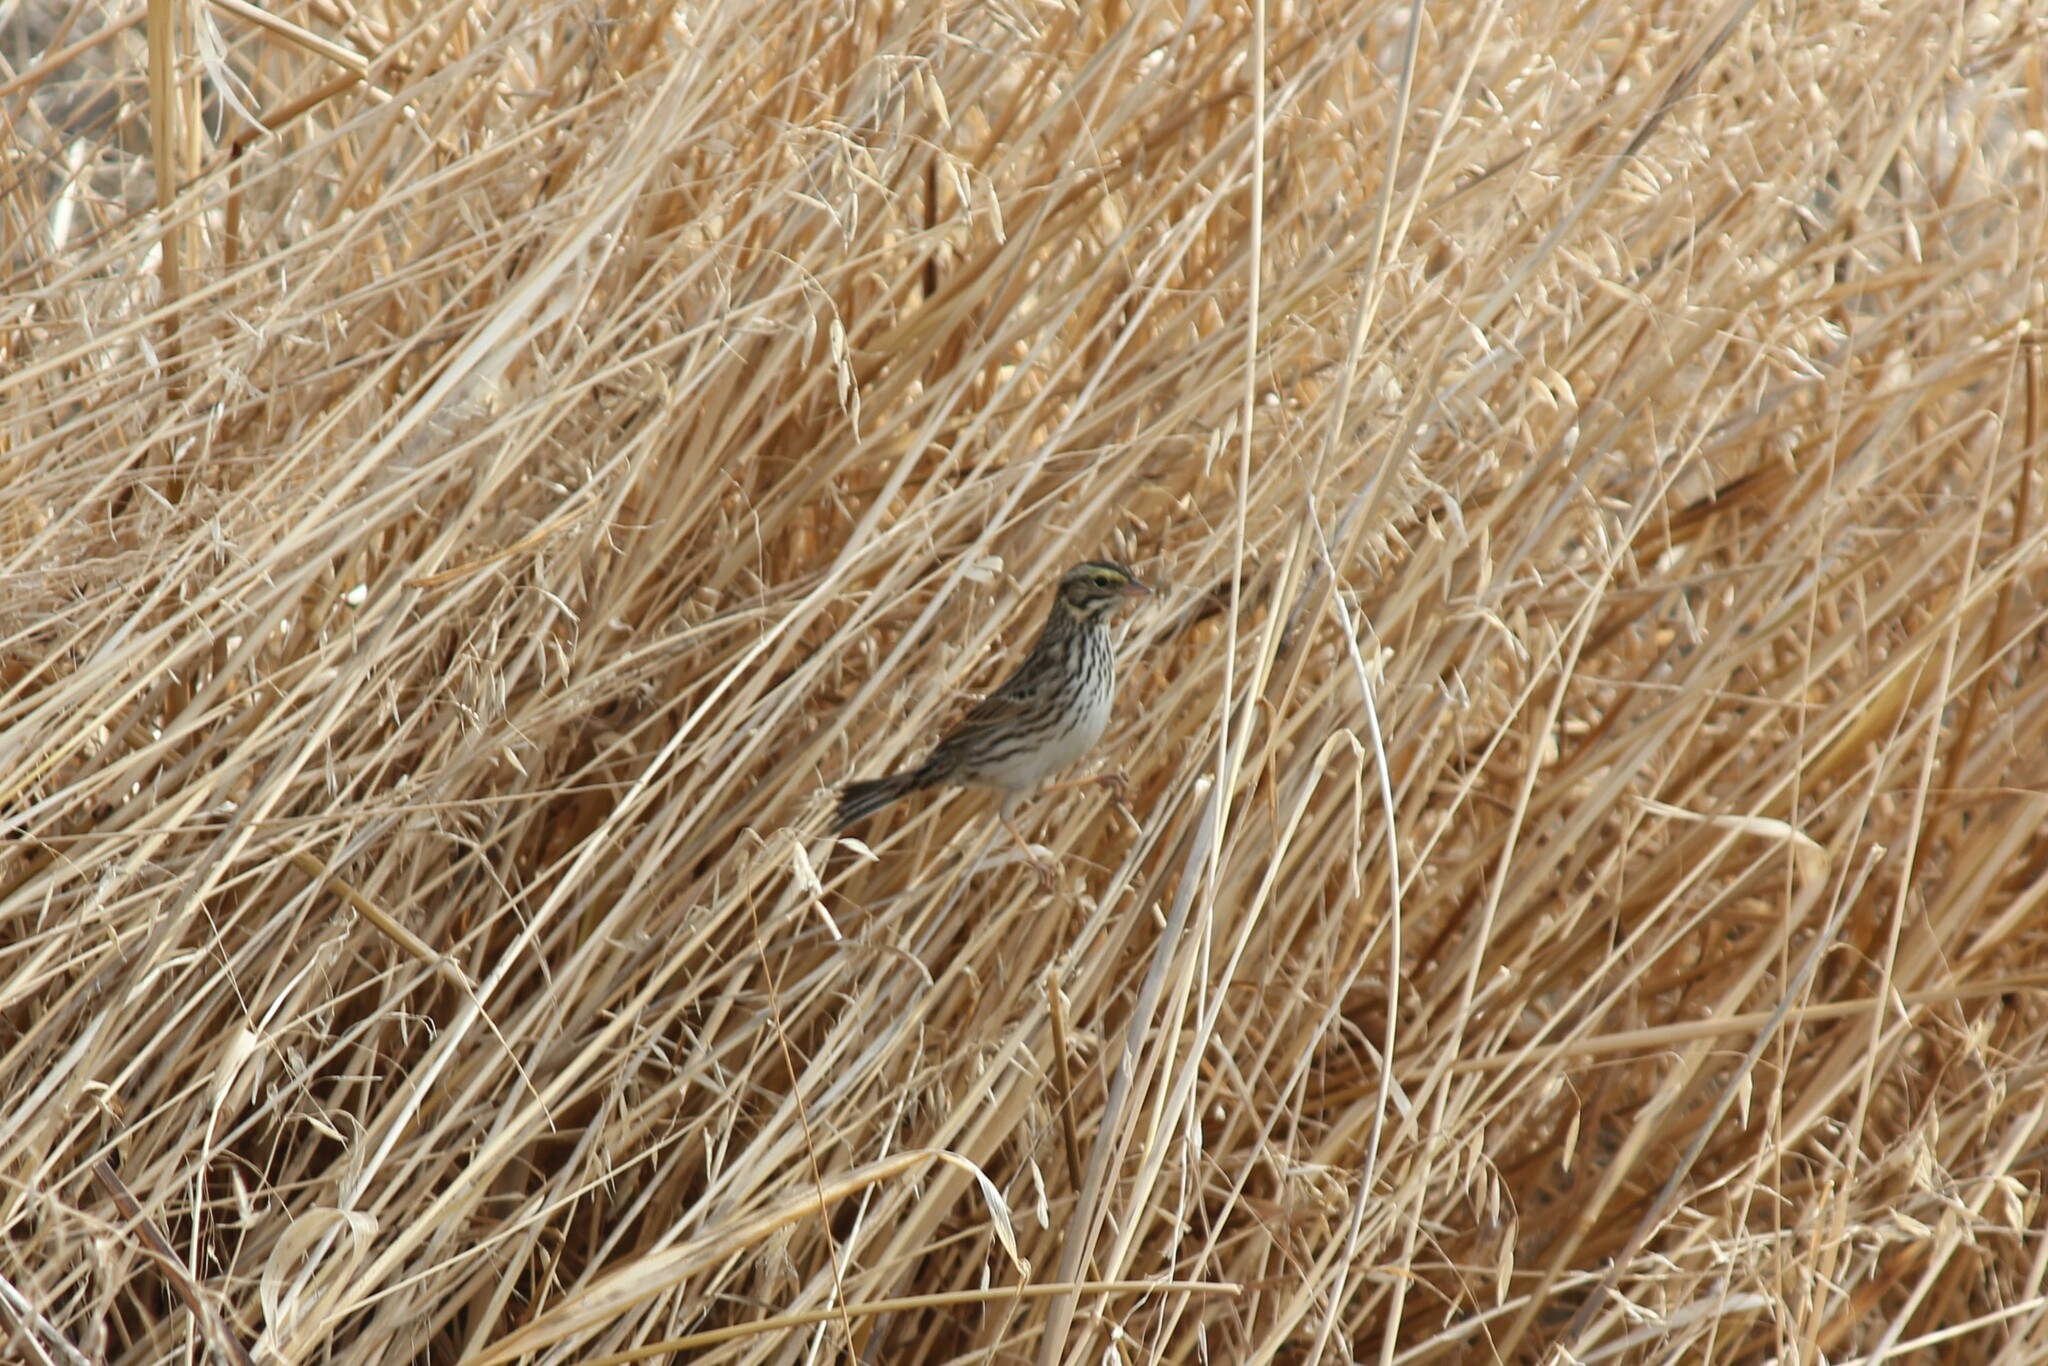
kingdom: Animalia
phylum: Chordata
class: Aves
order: Passeriformes
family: Passerellidae
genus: Passerculus
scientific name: Passerculus sandwichensis
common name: Savannah sparrow
